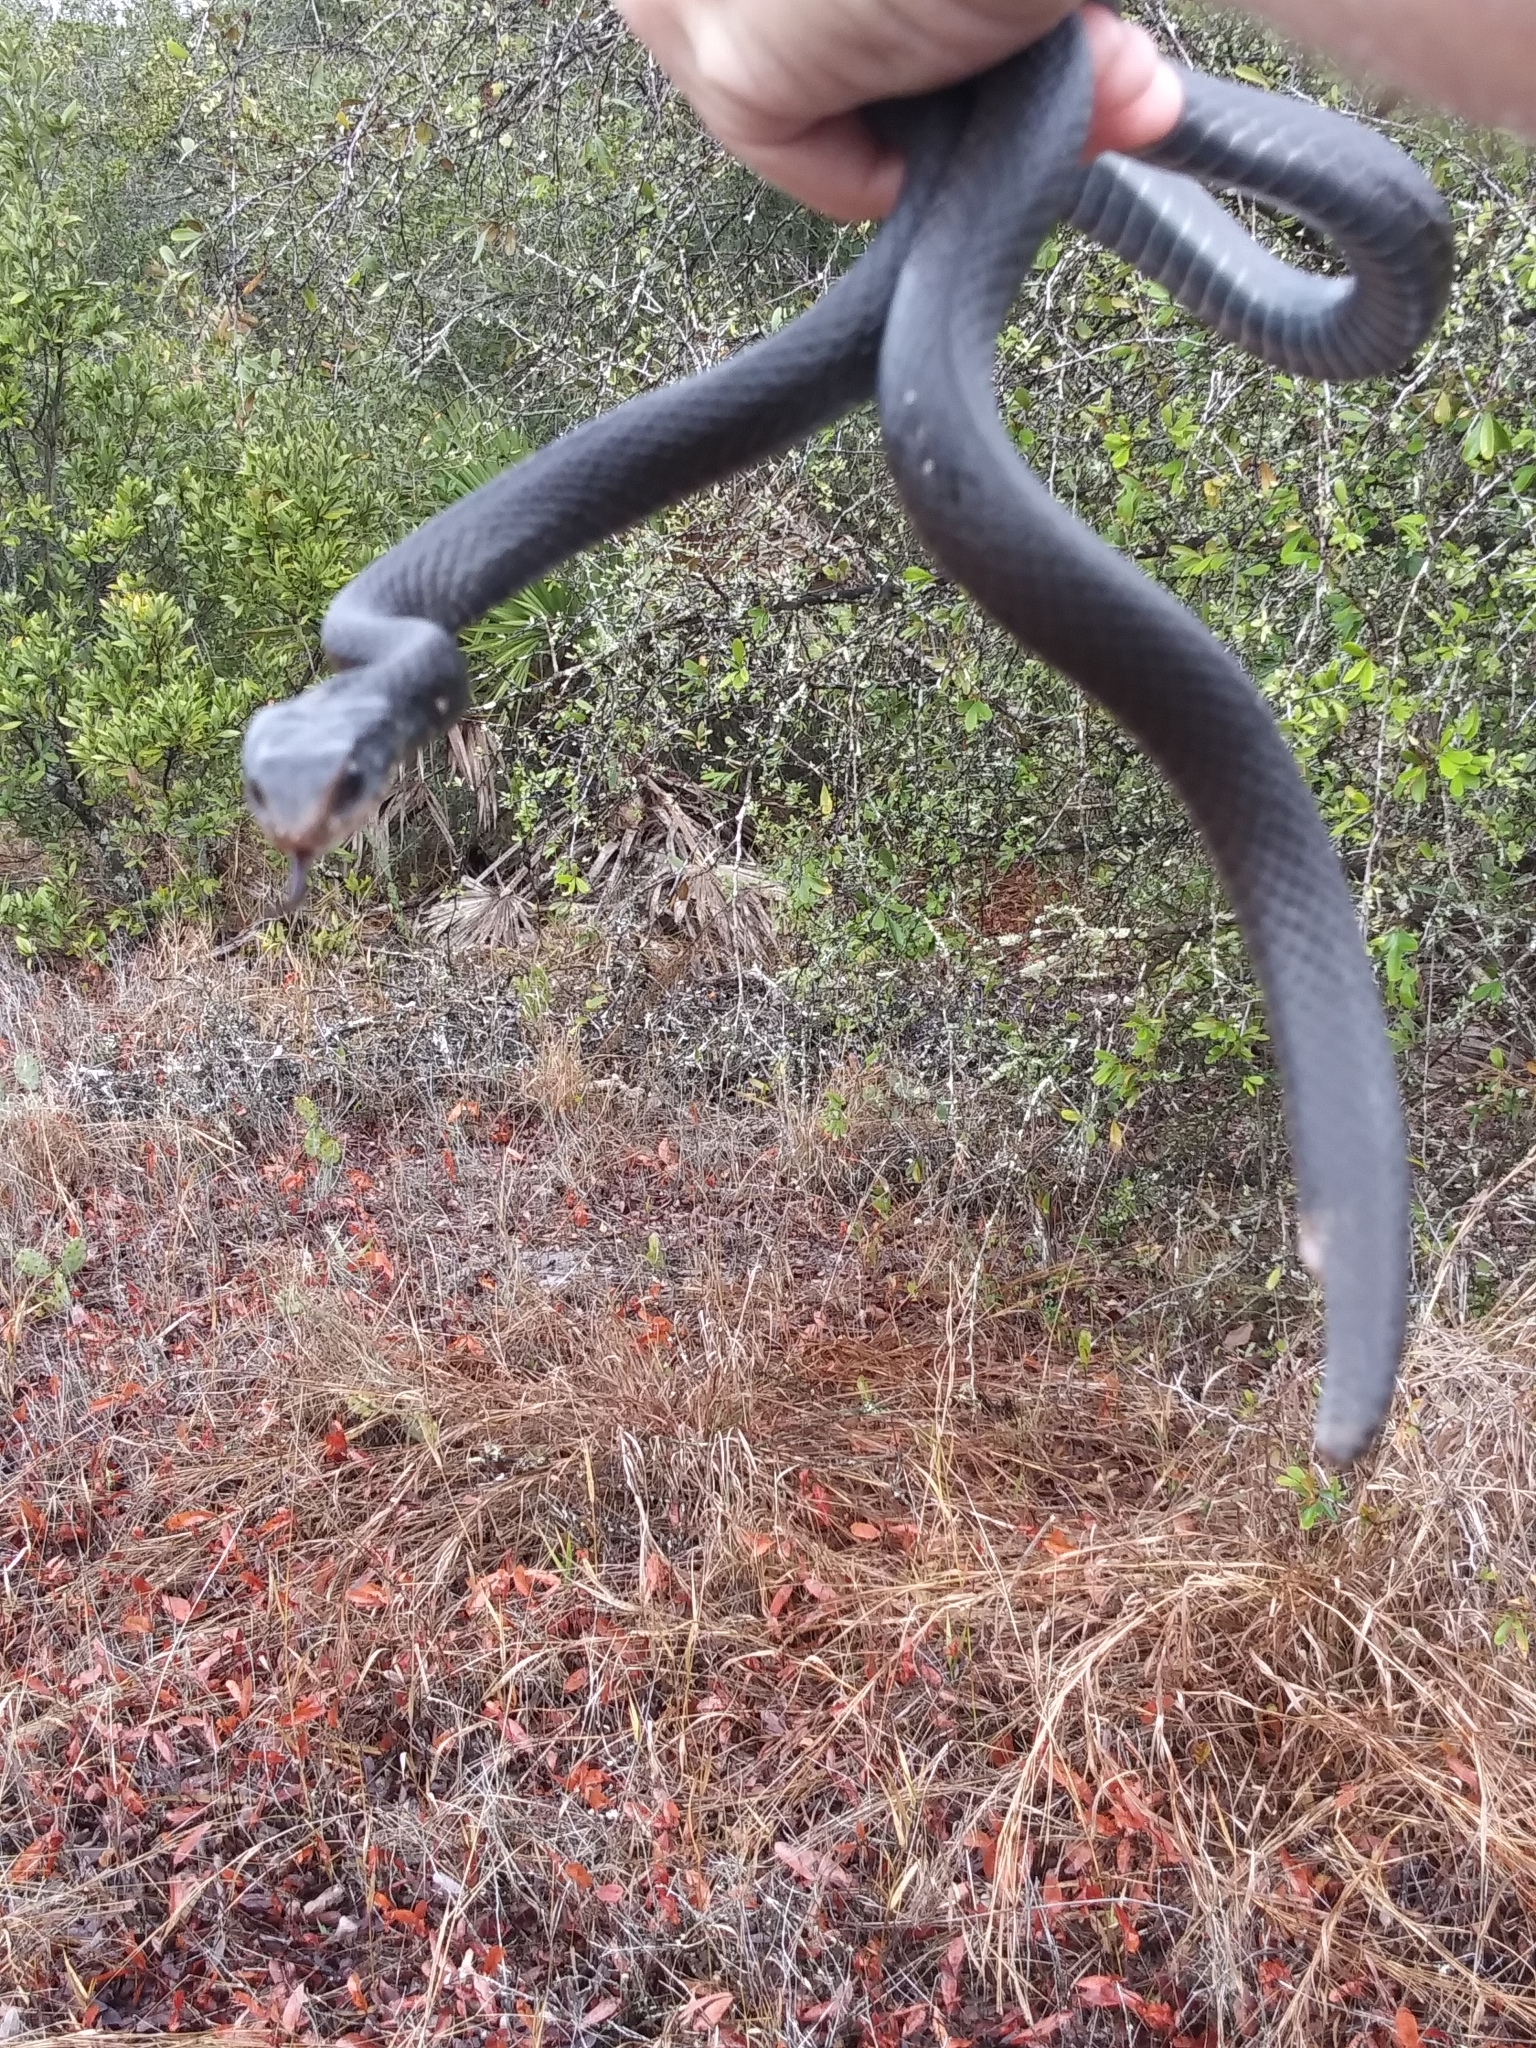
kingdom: Animalia
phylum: Chordata
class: Squamata
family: Colubridae
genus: Coluber
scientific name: Coluber constrictor
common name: Eastern racer
